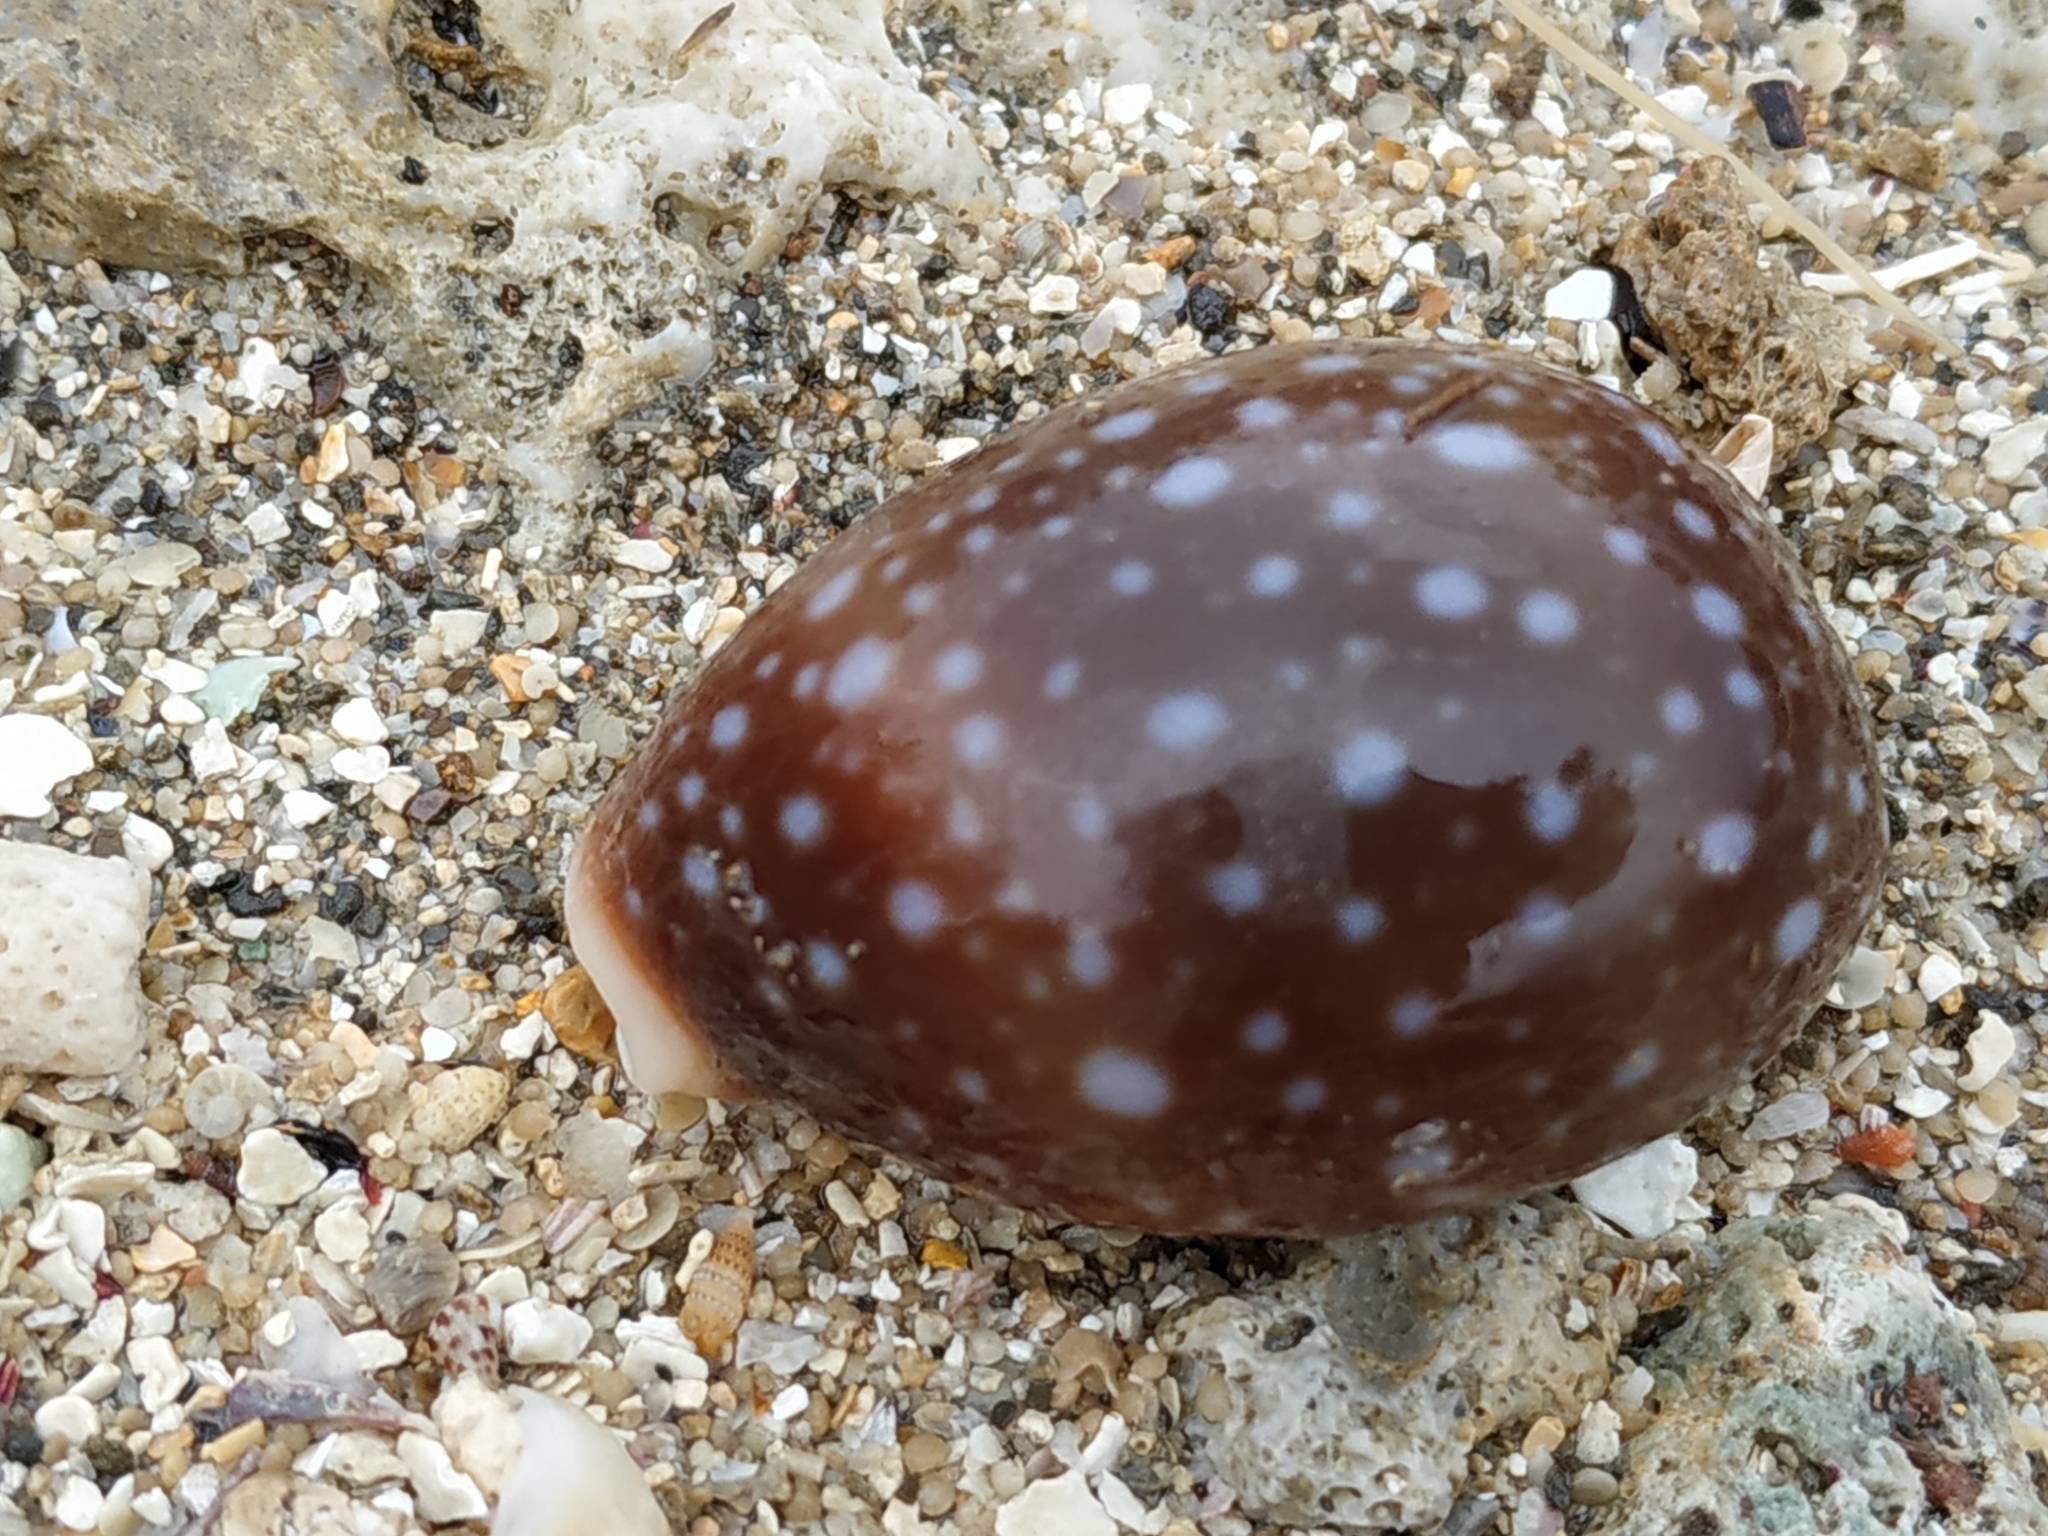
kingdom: Animalia
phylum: Mollusca
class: Gastropoda
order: Littorinimorpha
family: Cypraeidae
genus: Lyncina
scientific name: Lyncina vitellus
